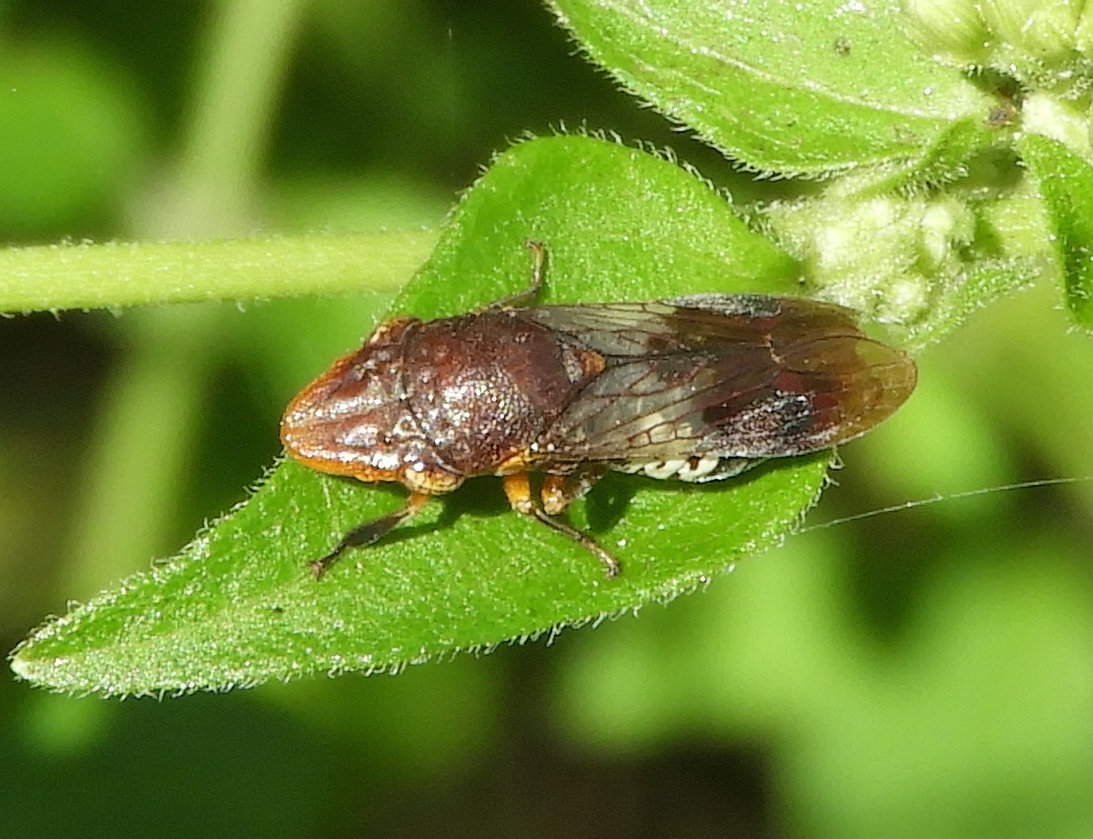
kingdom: Animalia
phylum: Arthropoda
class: Insecta
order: Hemiptera
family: Cicadellidae
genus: Homalodisca
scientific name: Homalodisca ichthyocephala
